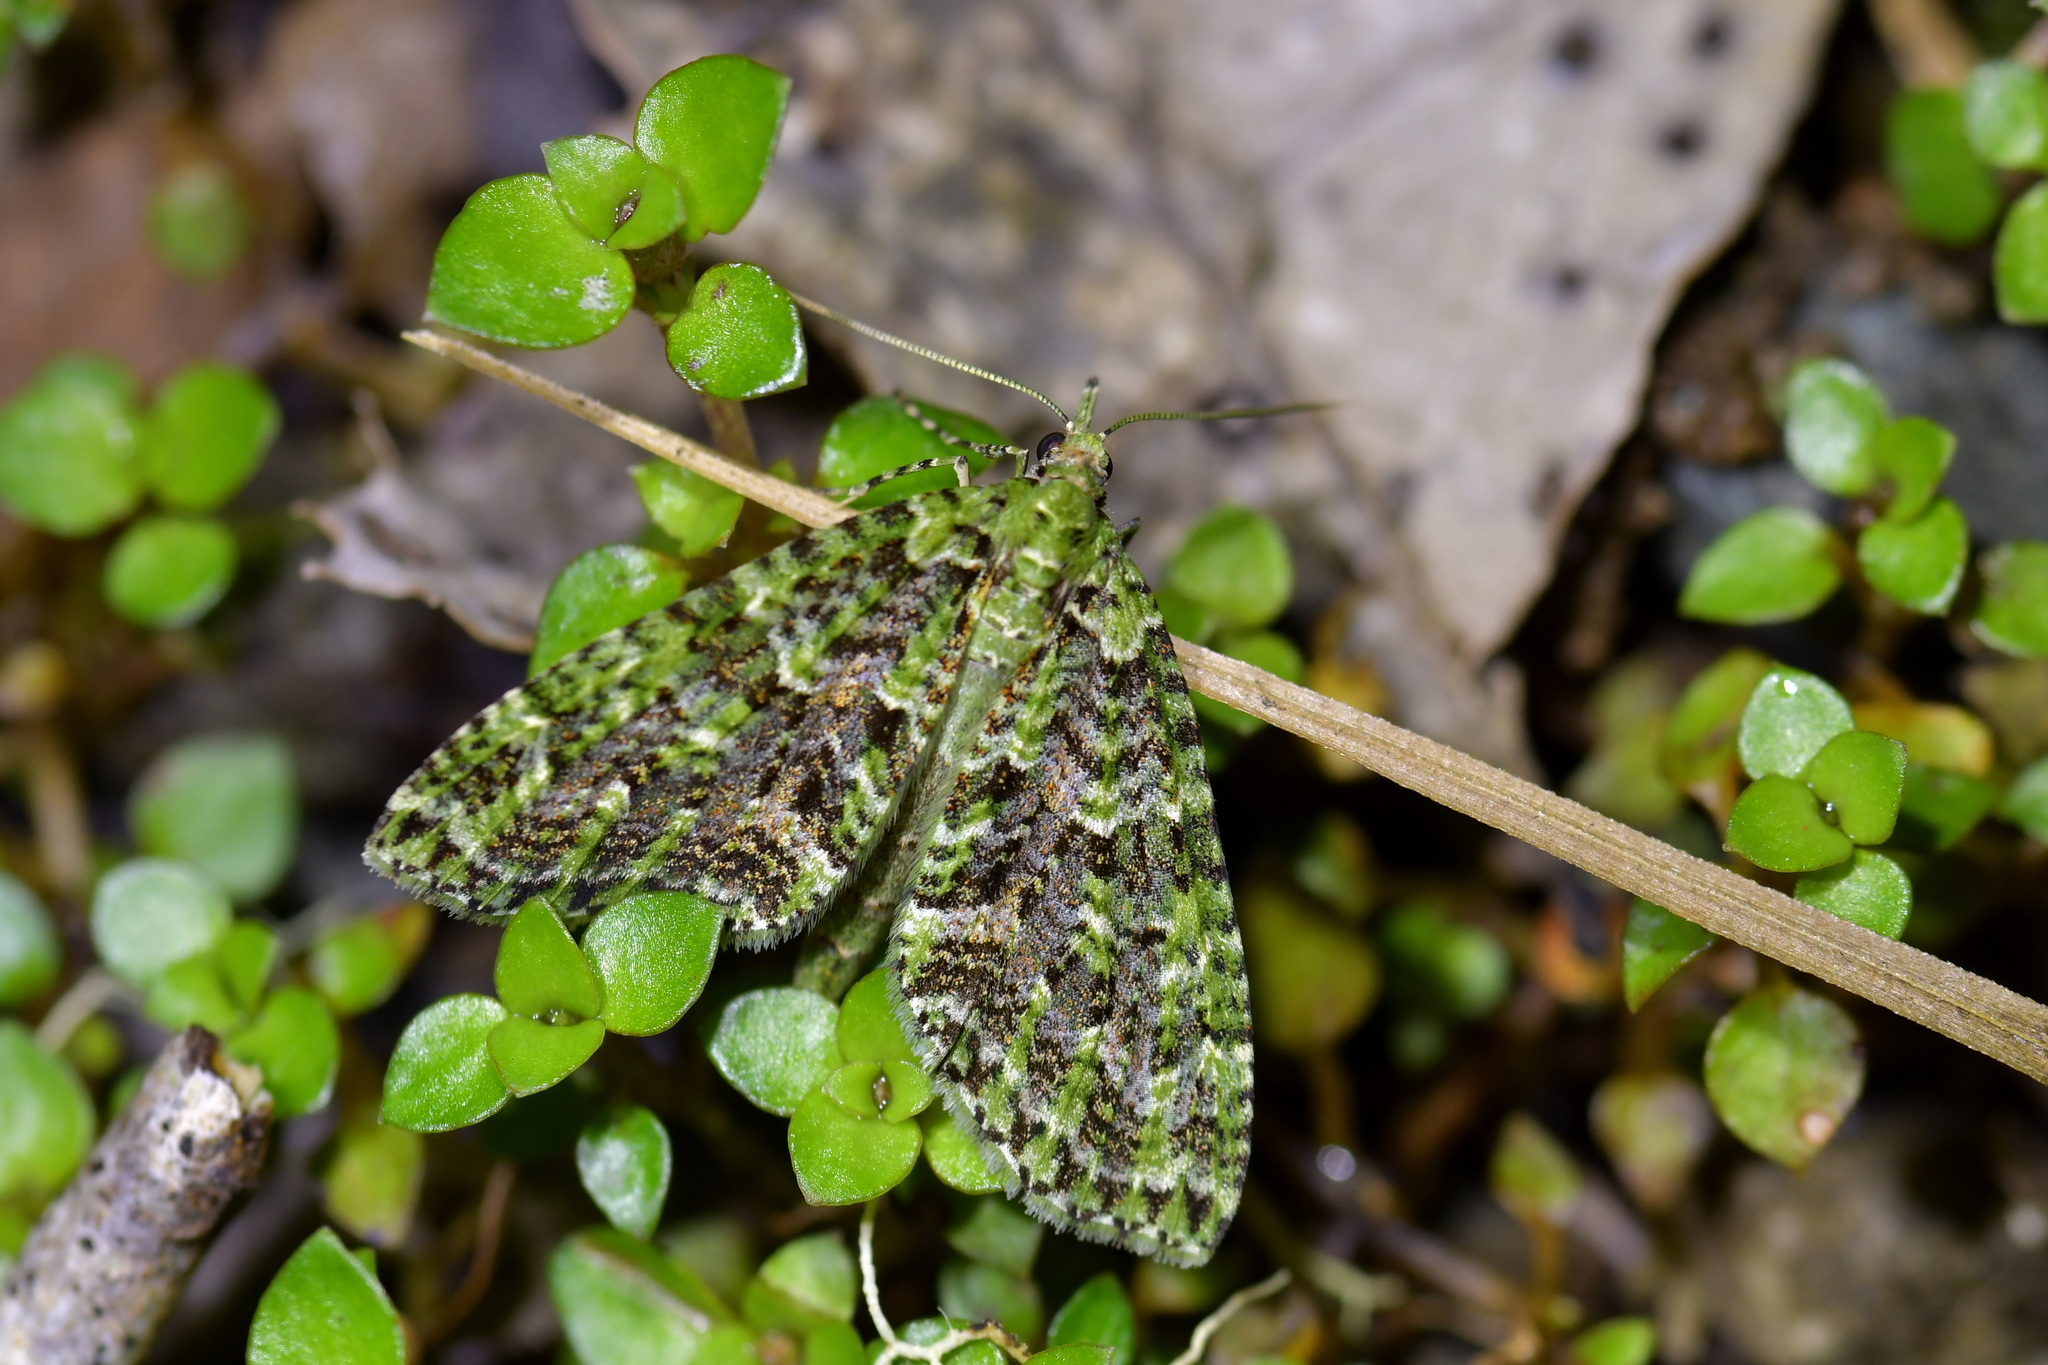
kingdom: Animalia
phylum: Arthropoda
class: Insecta
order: Lepidoptera
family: Geometridae
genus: Tatosoma
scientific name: Tatosoma tipulata
